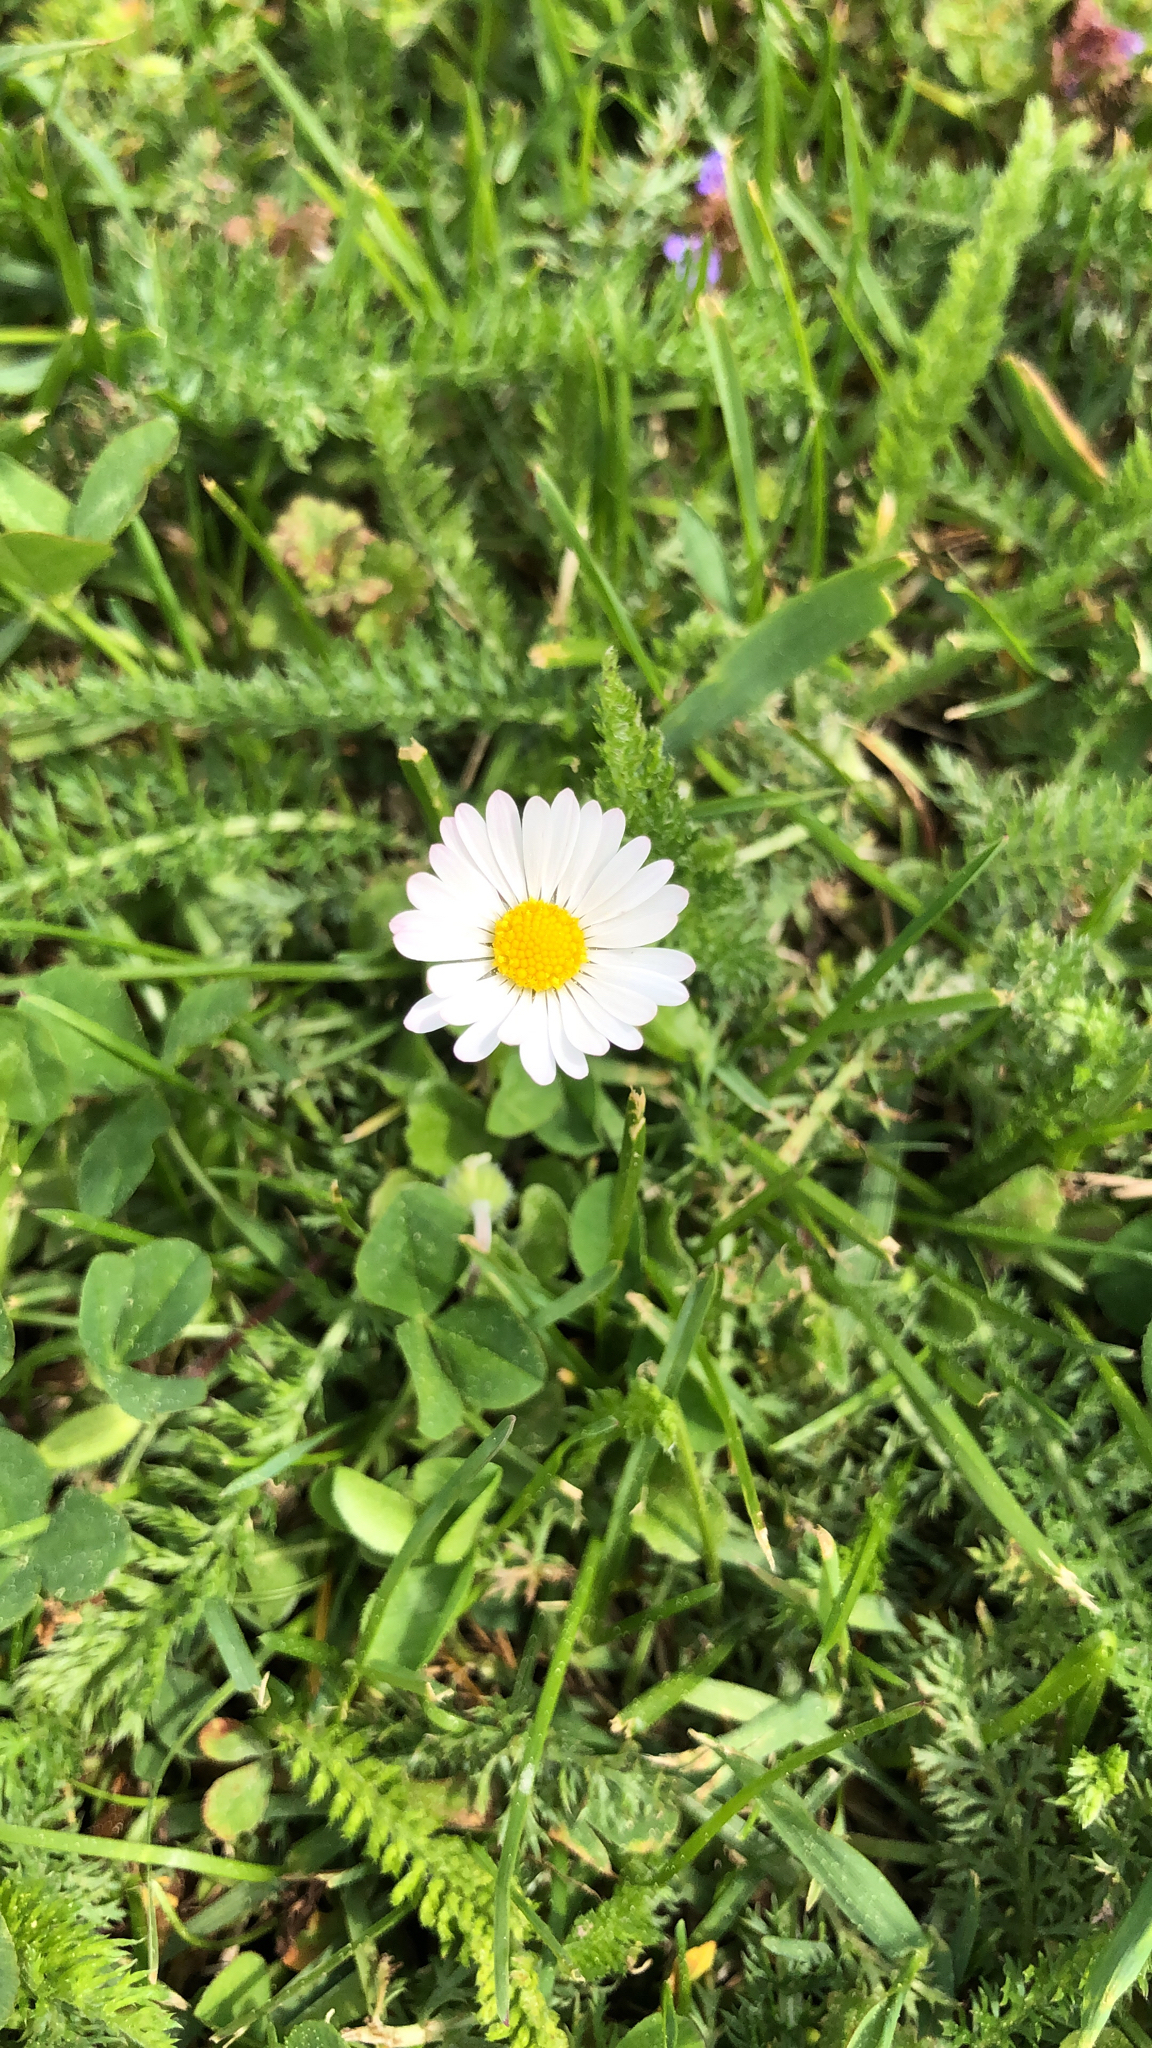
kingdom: Plantae
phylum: Tracheophyta
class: Magnoliopsida
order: Asterales
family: Asteraceae
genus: Bellis
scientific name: Bellis perennis
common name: Lawndaisy
